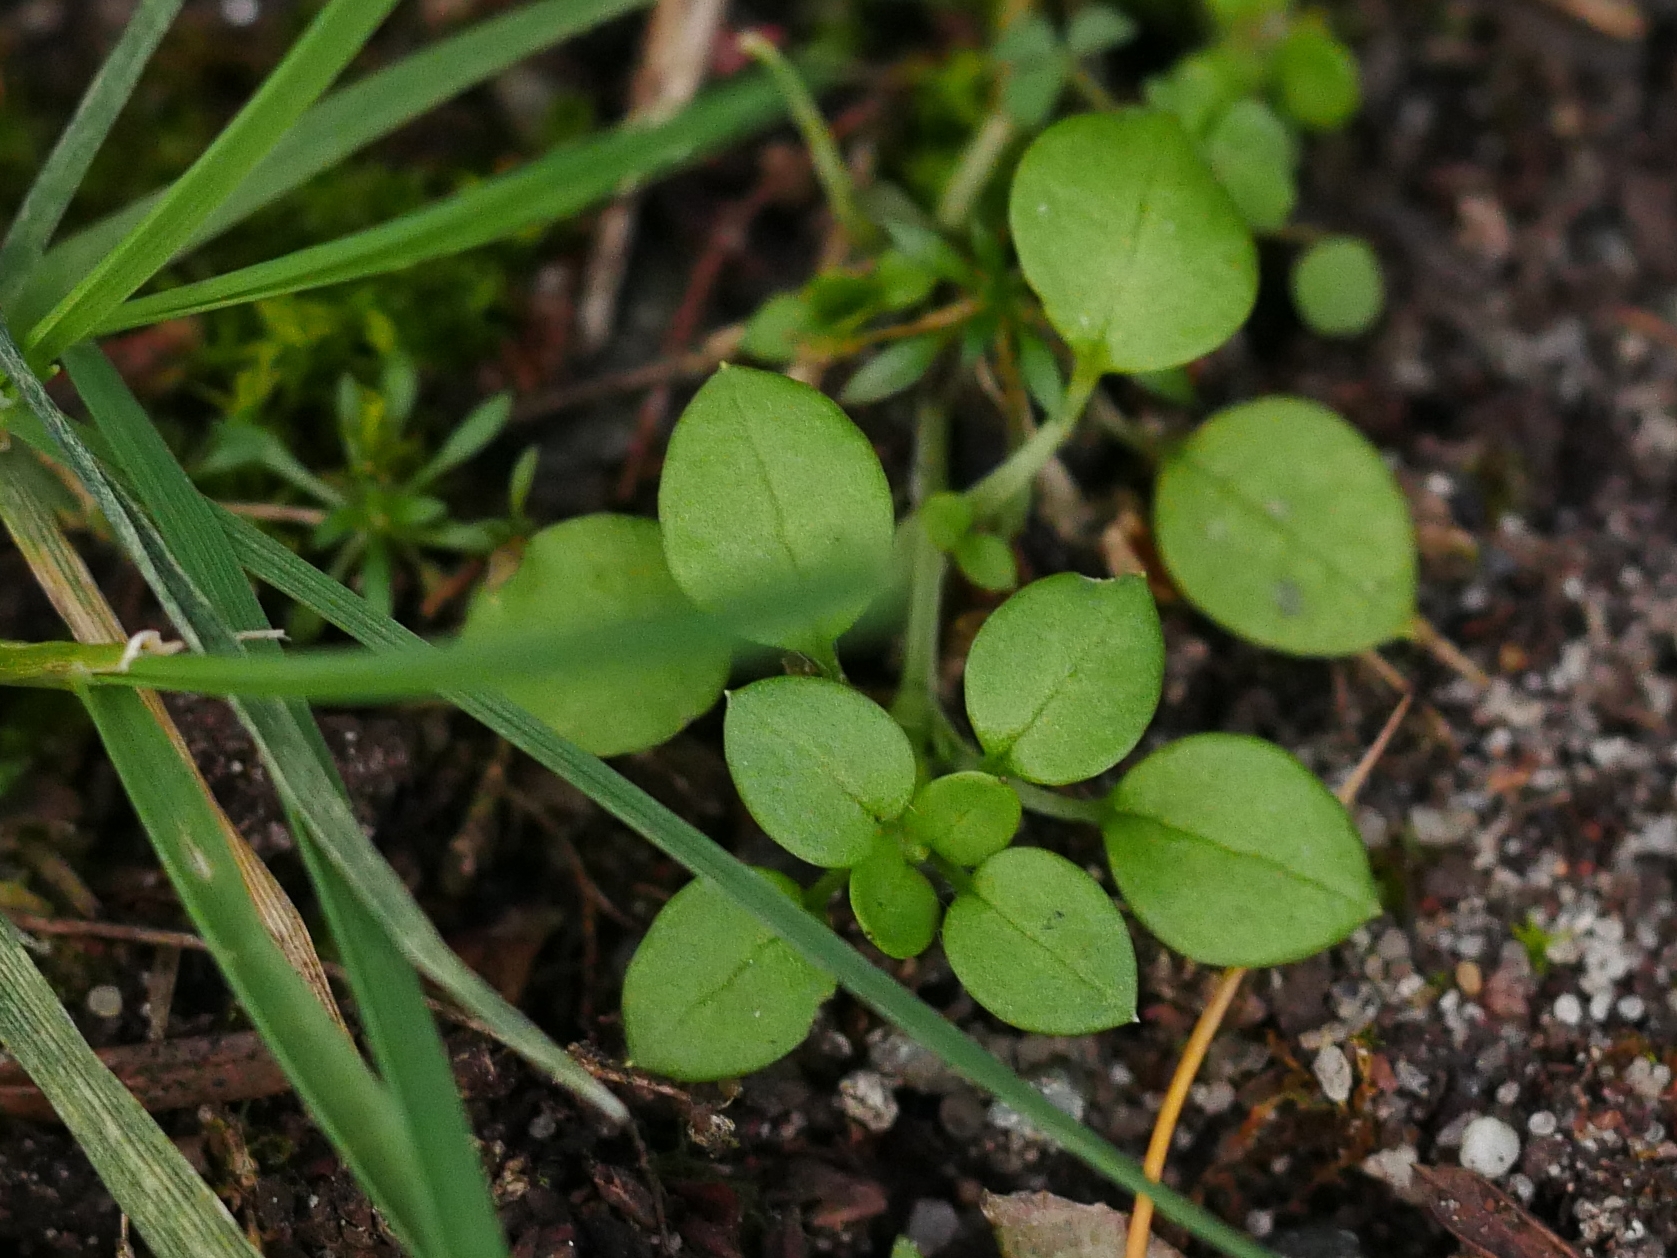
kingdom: Plantae
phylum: Tracheophyta
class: Magnoliopsida
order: Caryophyllales
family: Caryophyllaceae
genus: Stellaria
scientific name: Stellaria media
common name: Common chickweed
